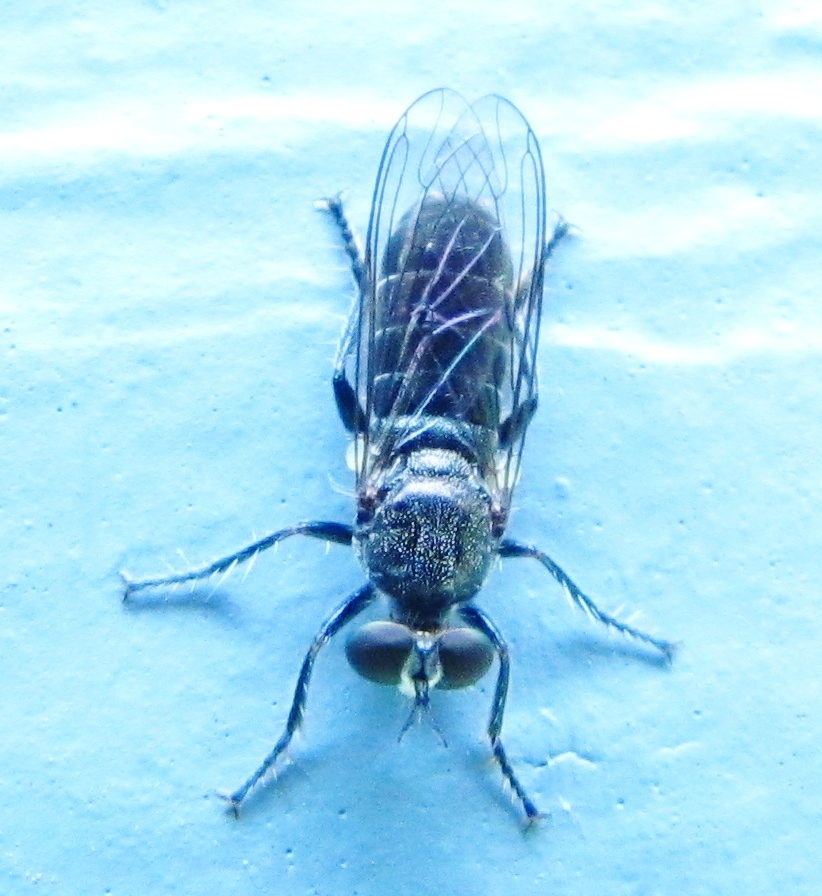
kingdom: Animalia
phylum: Arthropoda
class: Insecta
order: Diptera
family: Asilidae
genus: Atomosia
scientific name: Atomosia puella
